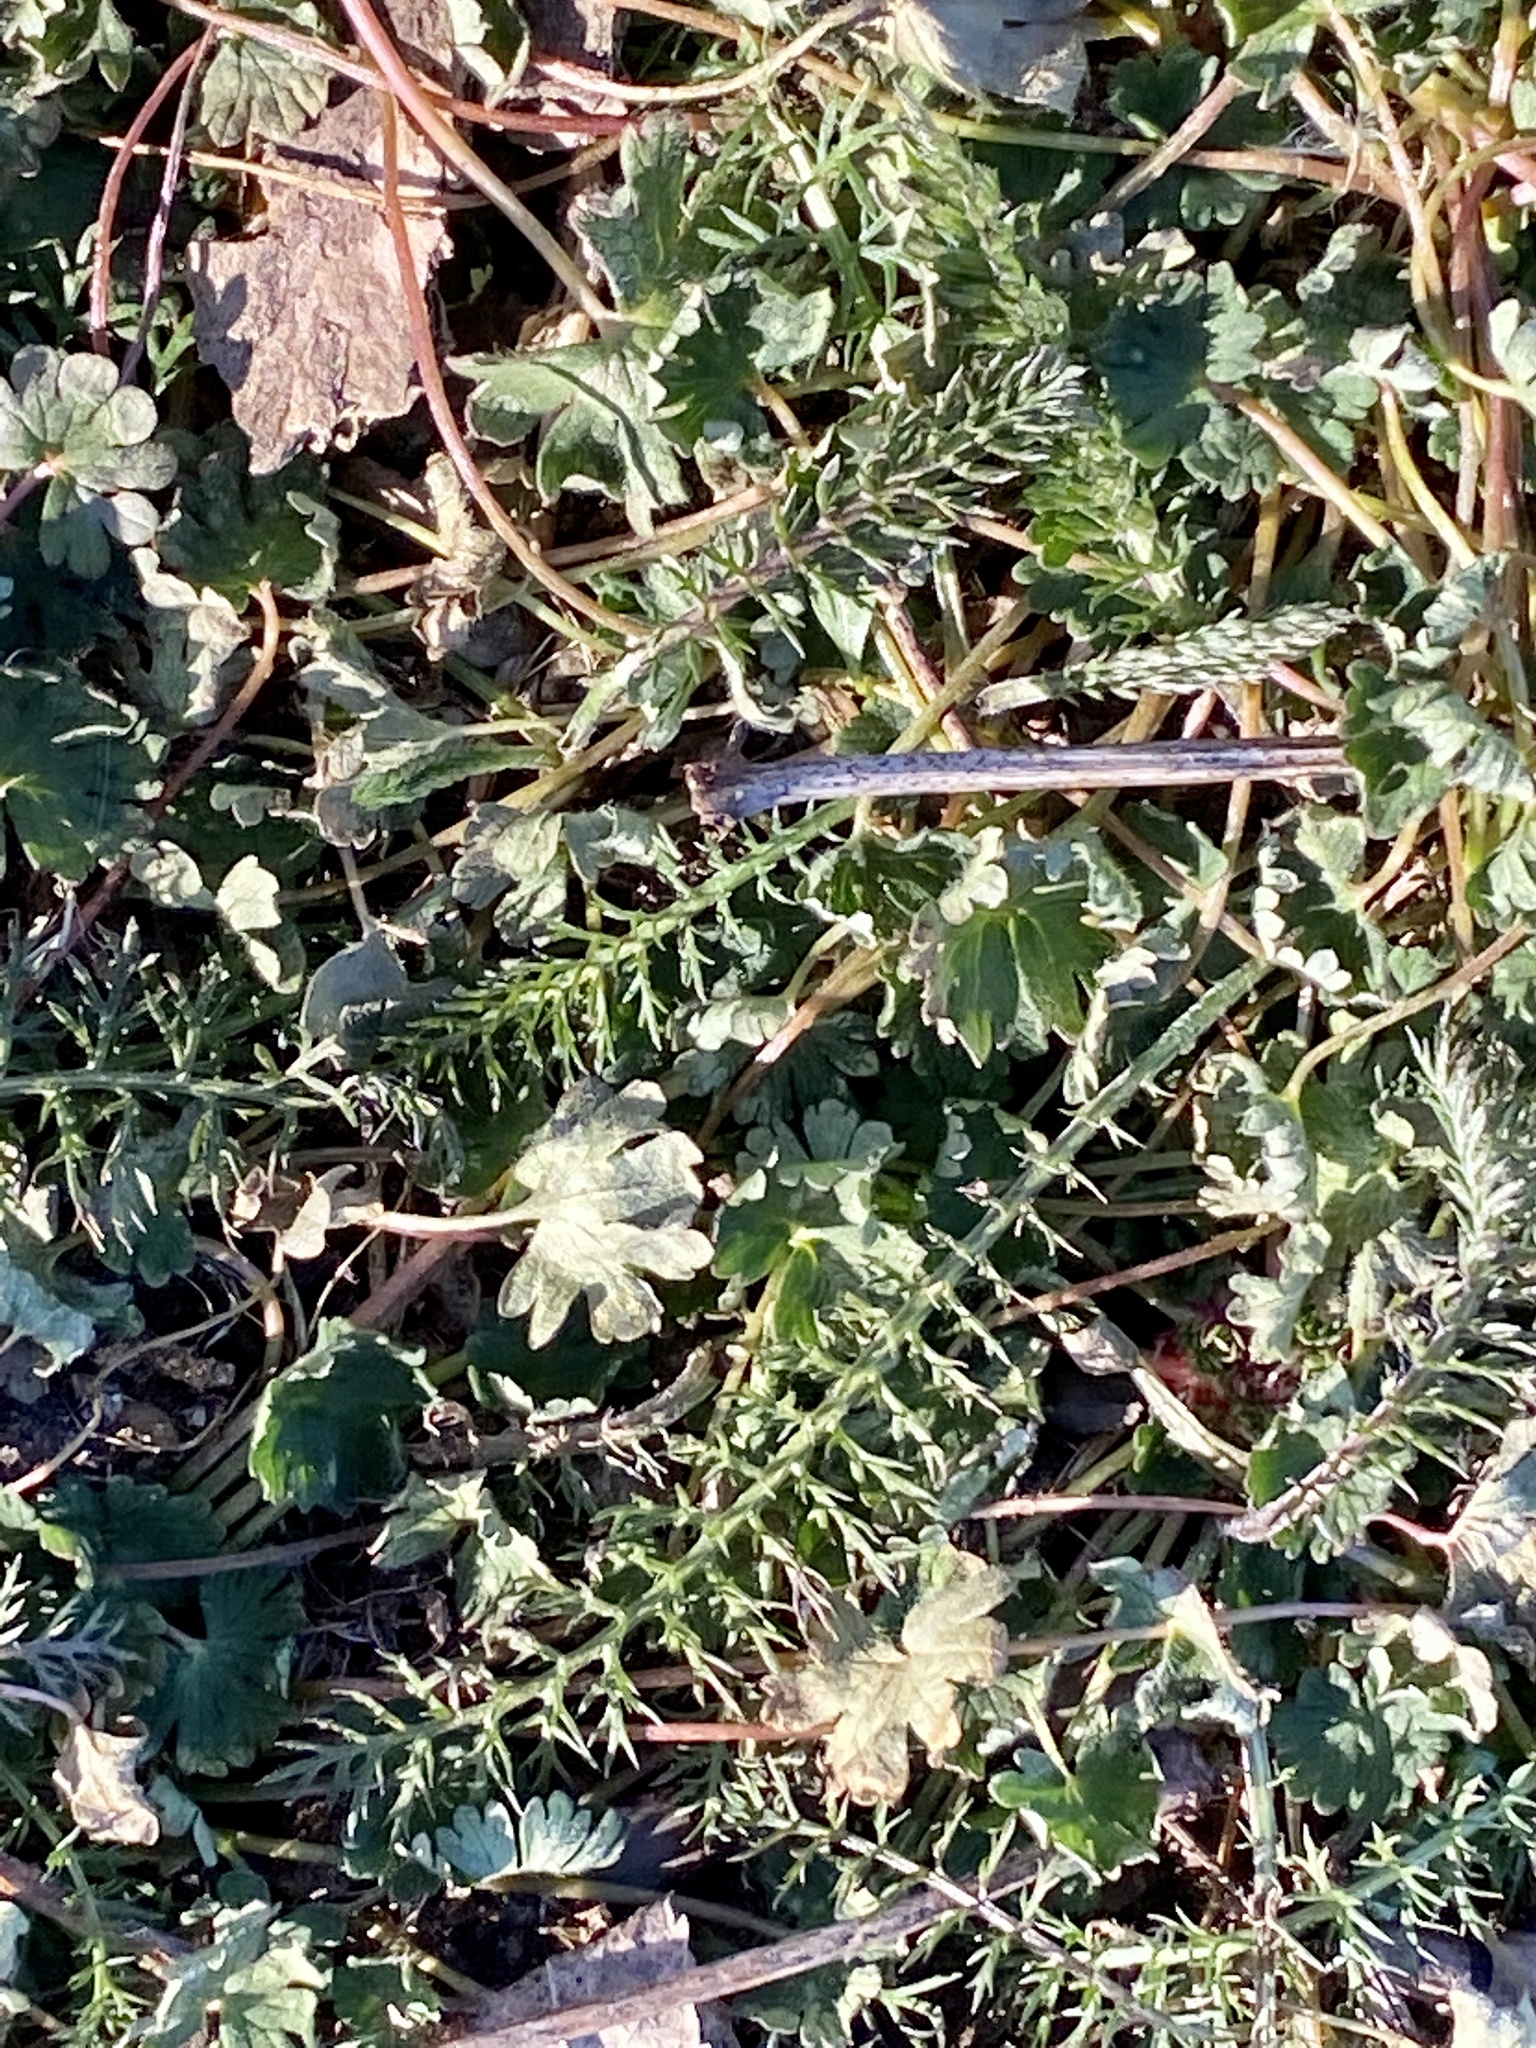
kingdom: Plantae
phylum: Tracheophyta
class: Magnoliopsida
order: Asterales
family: Asteraceae
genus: Achillea
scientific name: Achillea millefolium
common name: Yarrow
